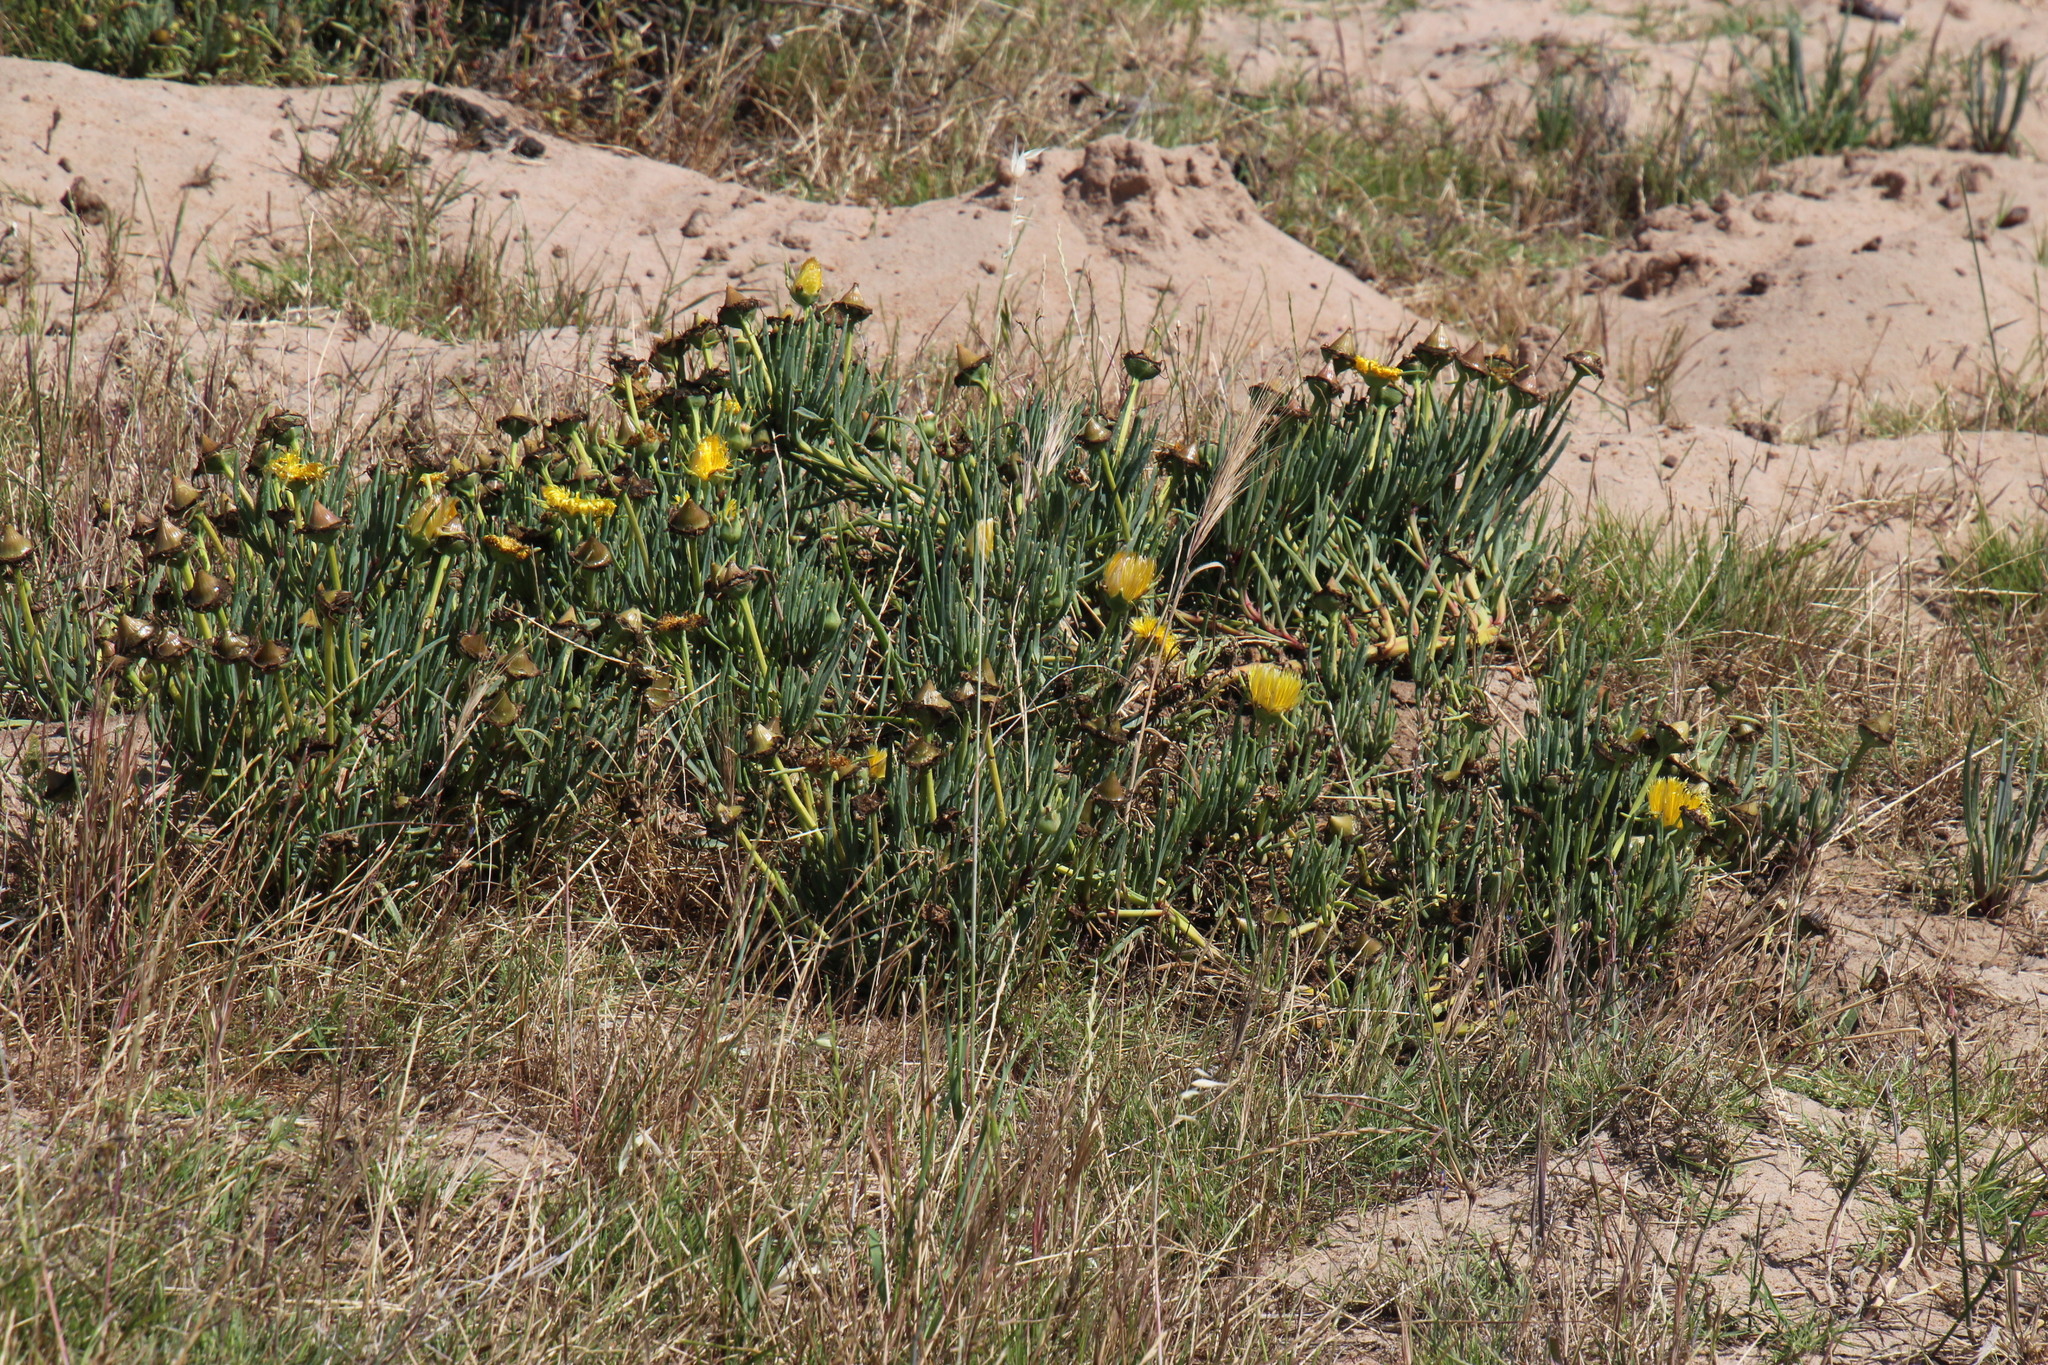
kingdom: Plantae
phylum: Tracheophyta
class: Magnoliopsida
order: Caryophyllales
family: Aizoaceae
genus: Conicosia
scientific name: Conicosia pugioniformis
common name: Narrow-leaved iceplant
